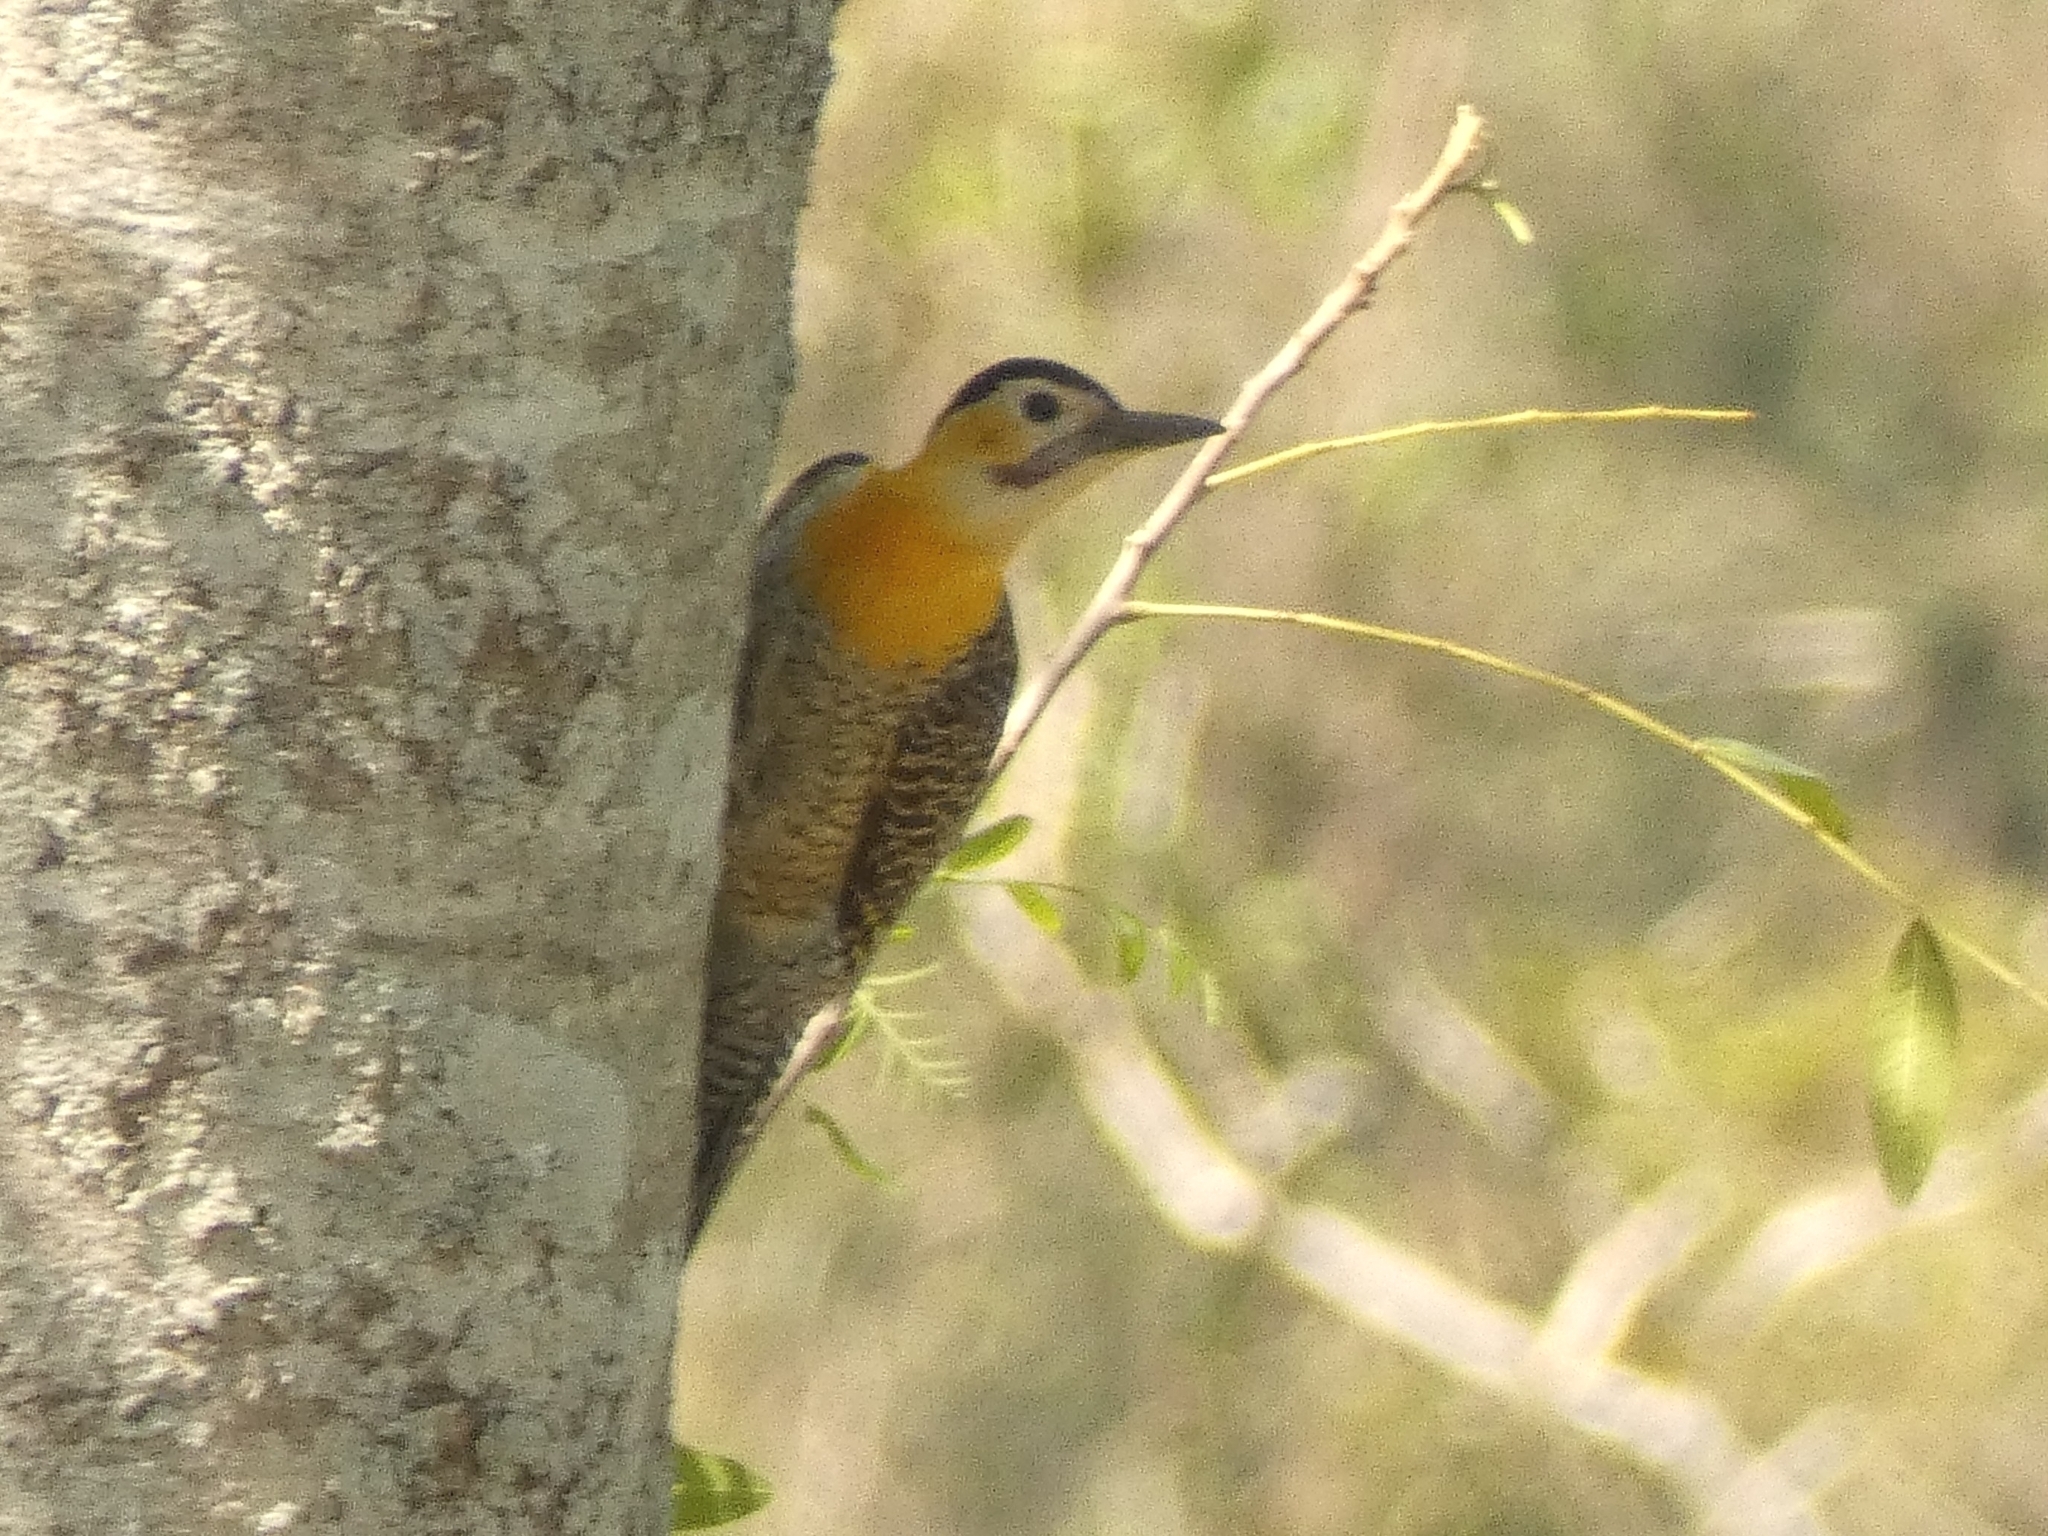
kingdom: Animalia
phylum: Chordata
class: Aves
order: Piciformes
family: Picidae
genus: Colaptes
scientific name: Colaptes campestris
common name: Campo flicker
